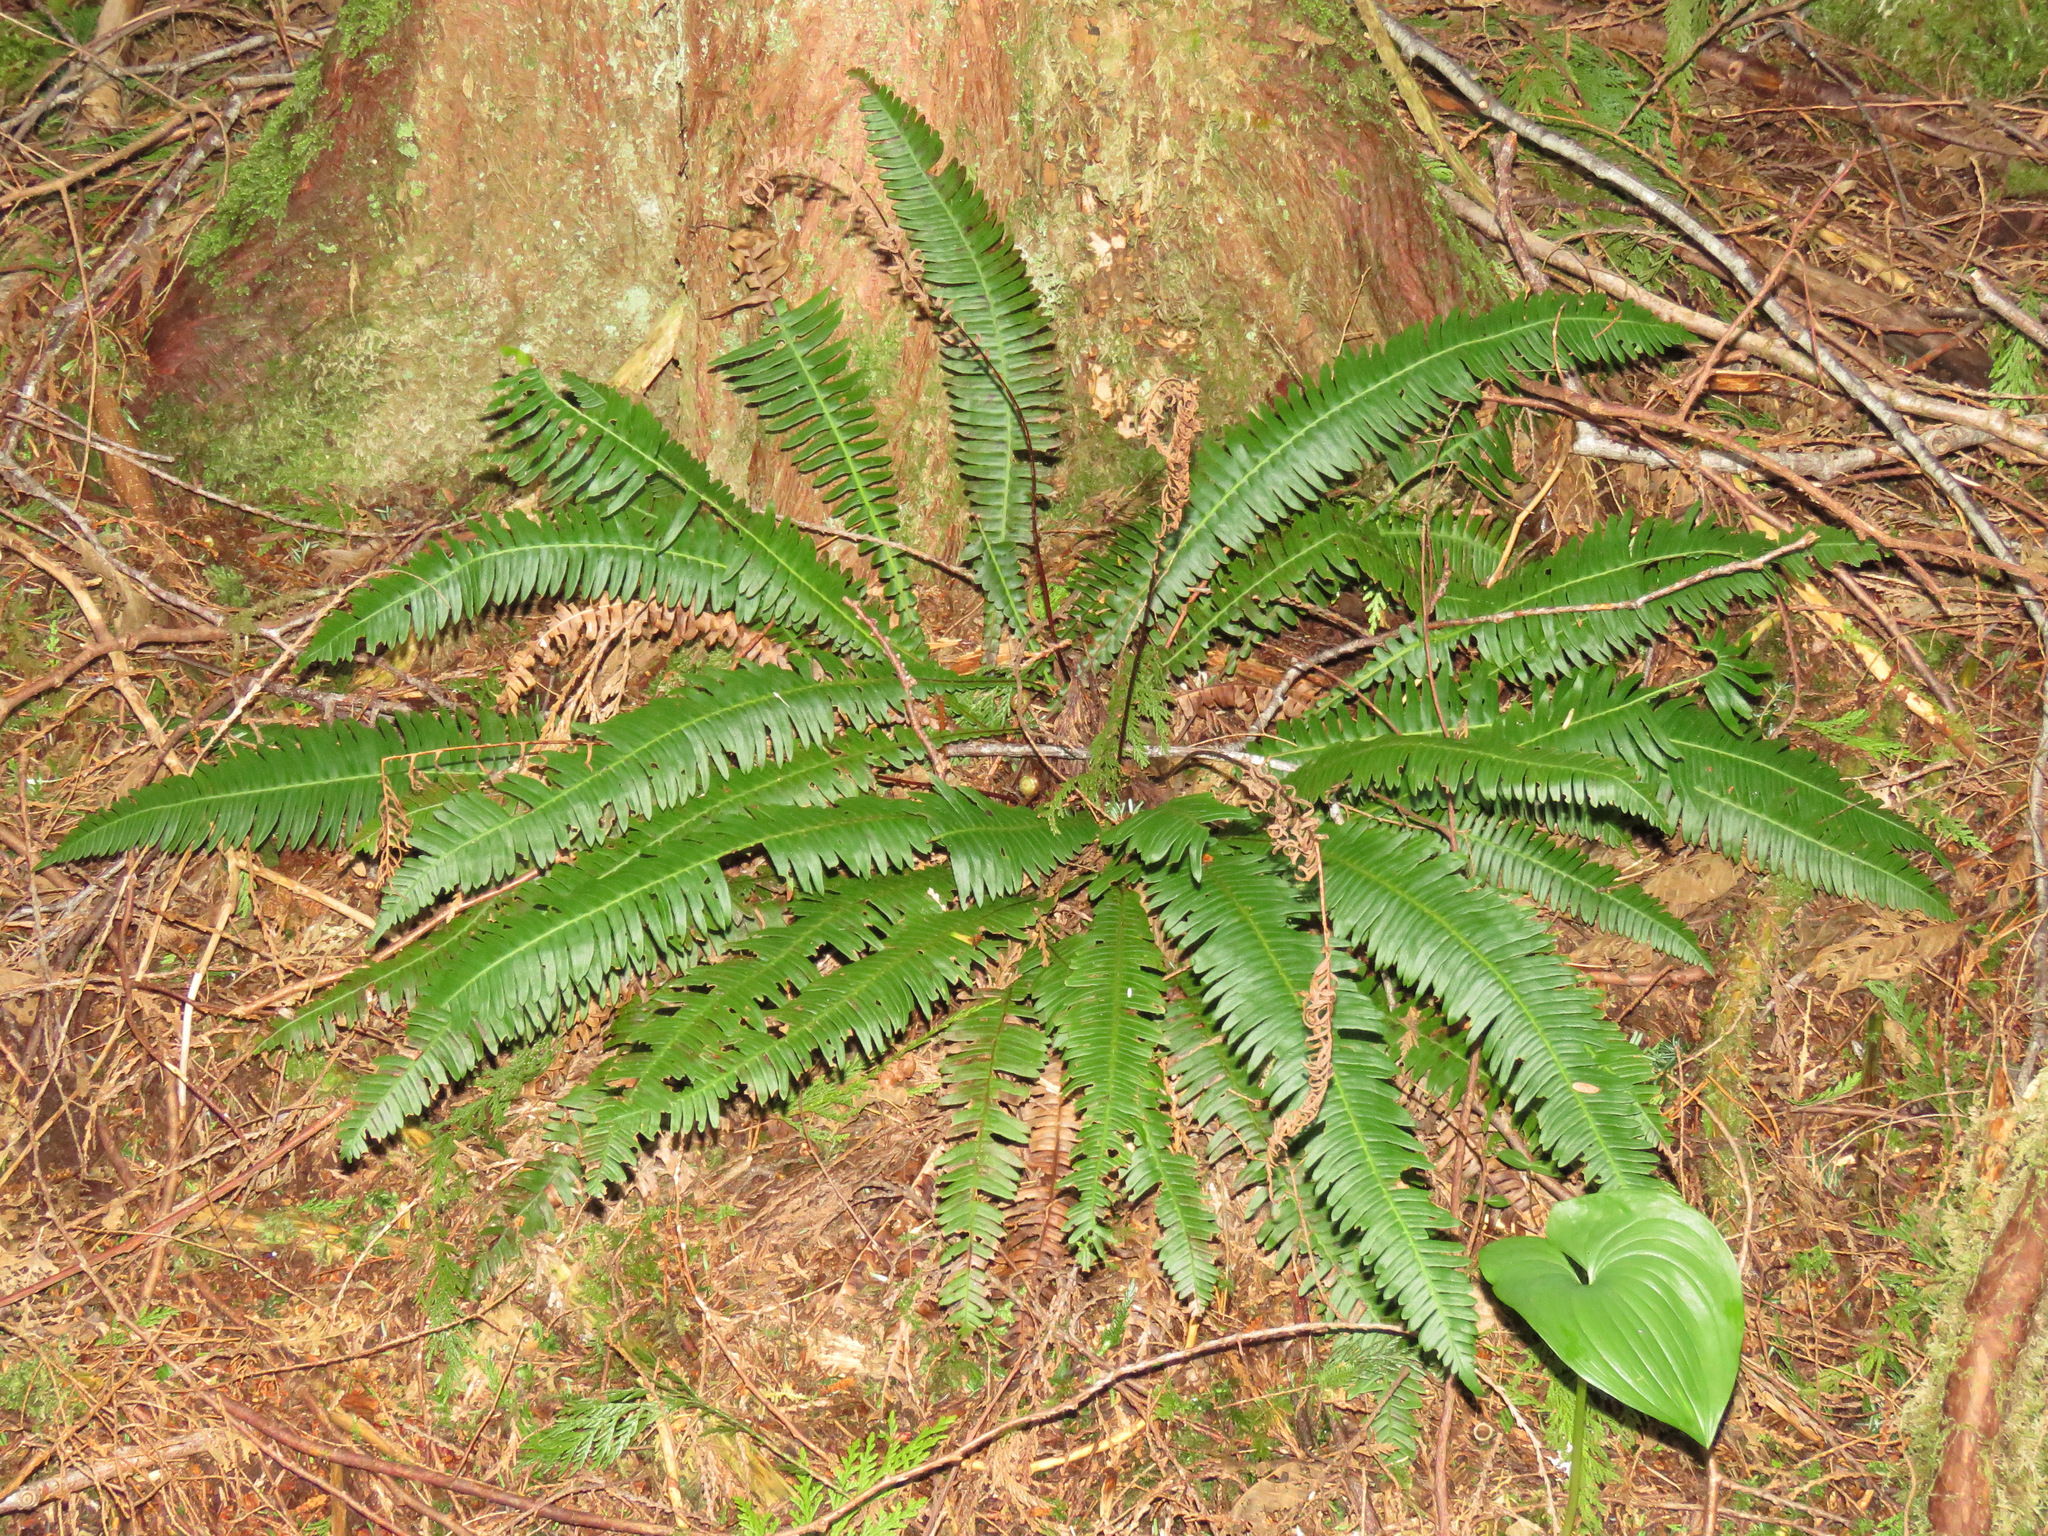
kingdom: Plantae
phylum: Tracheophyta
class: Polypodiopsida
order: Polypodiales
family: Blechnaceae
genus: Struthiopteris
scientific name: Struthiopteris spicant
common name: Deer fern
